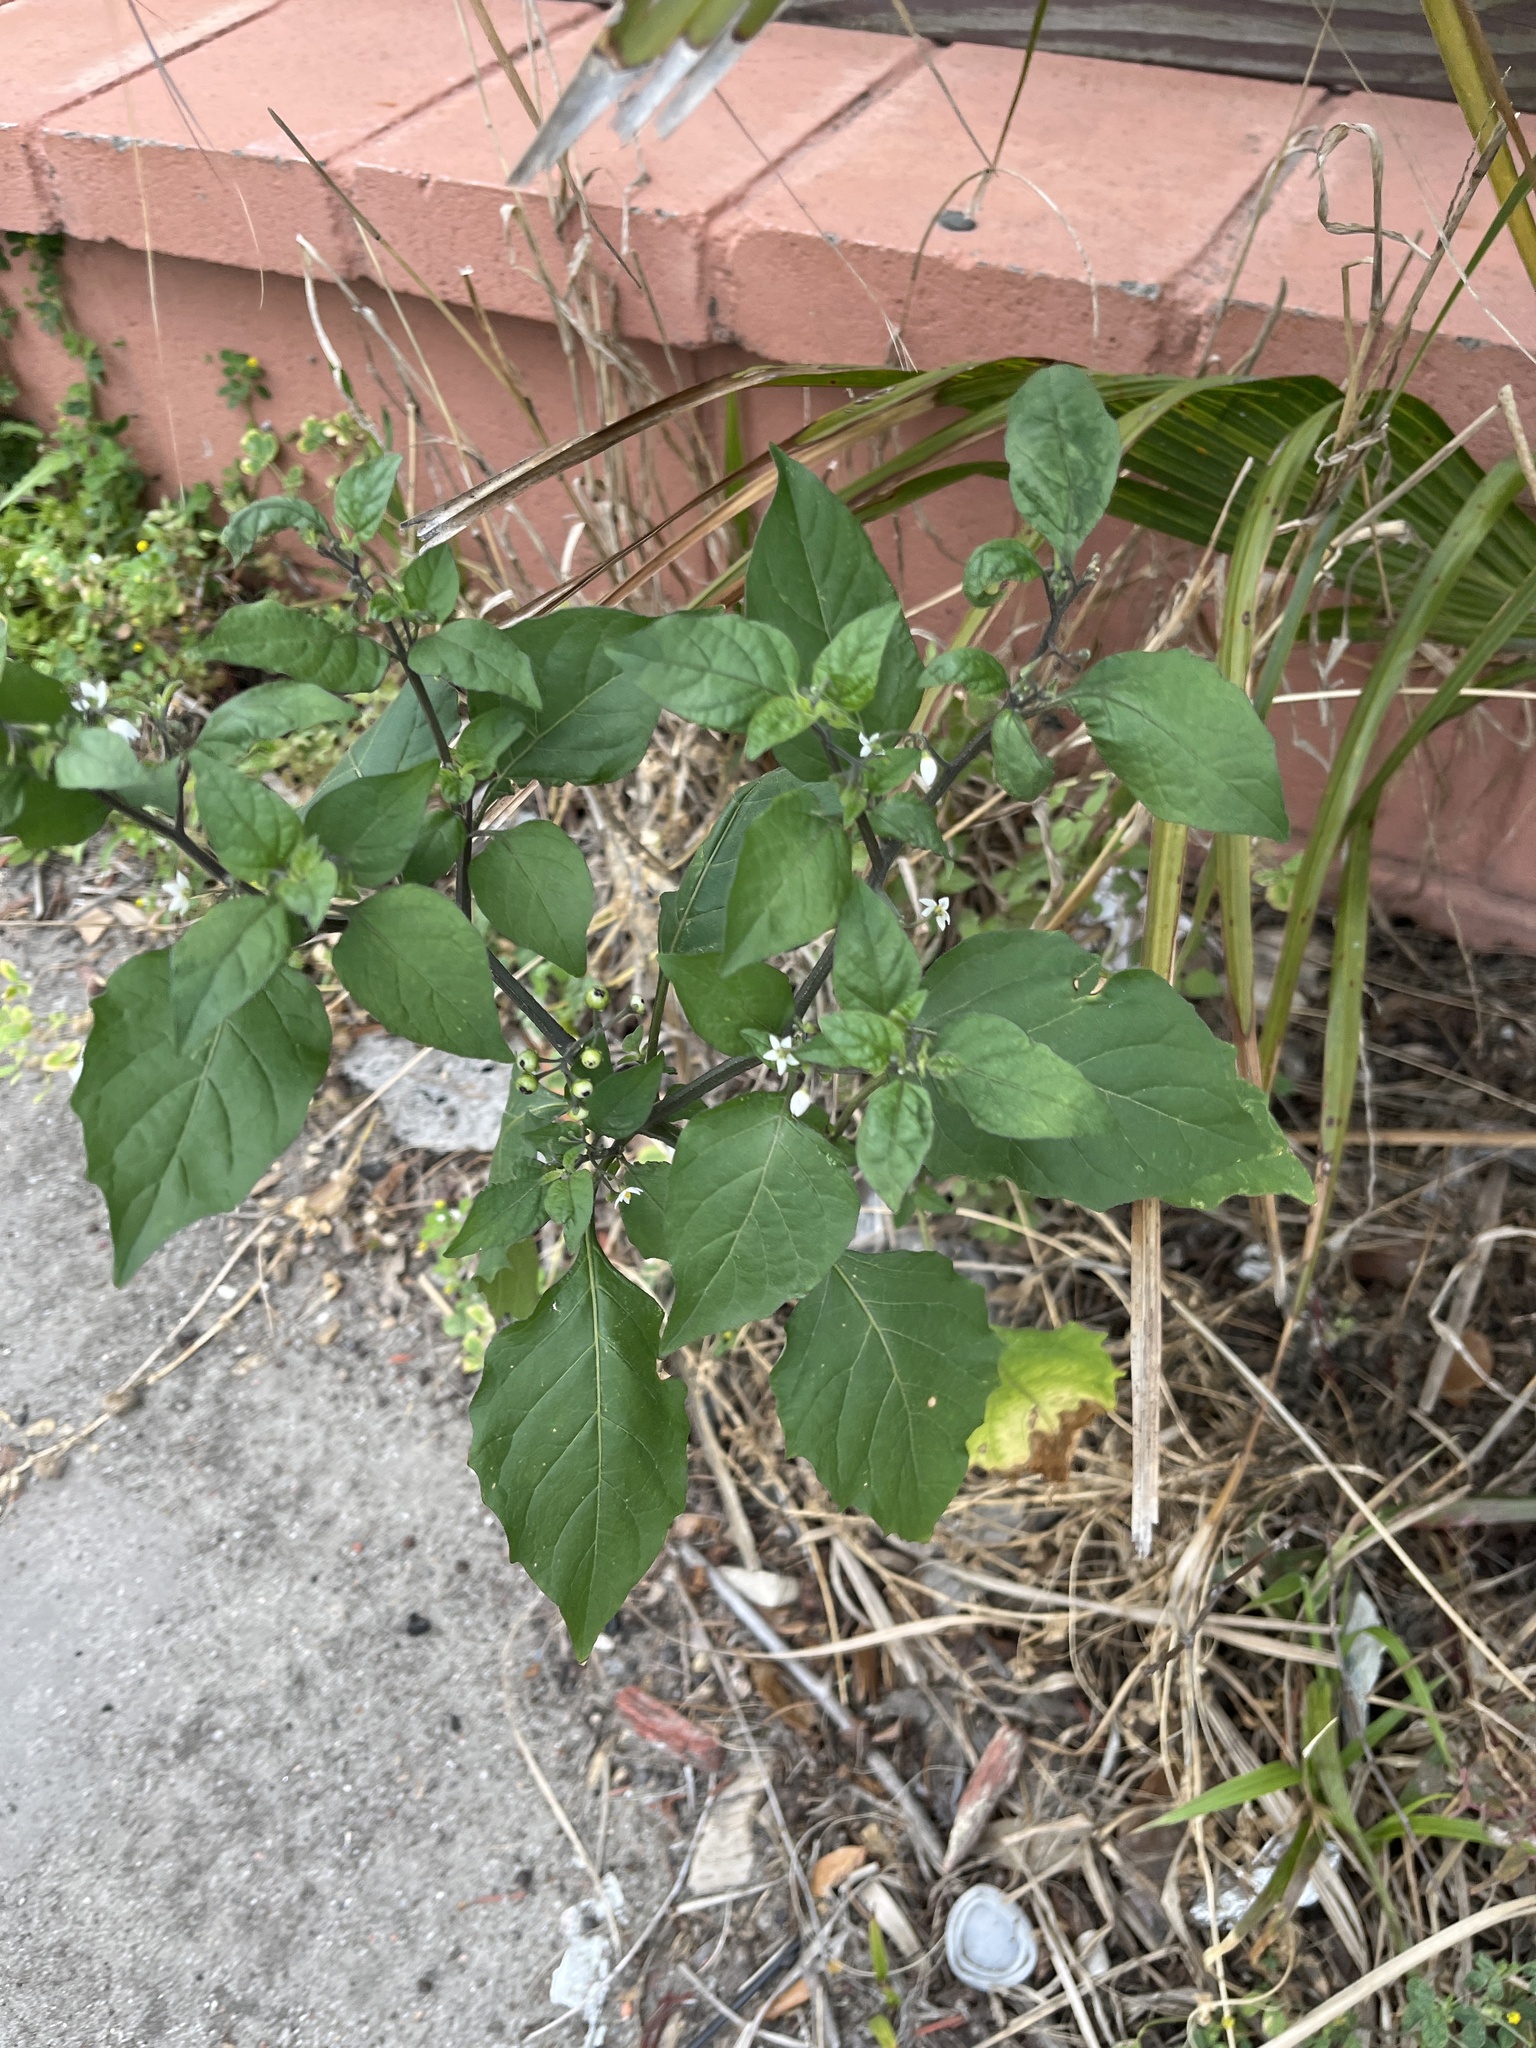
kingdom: Plantae
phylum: Tracheophyta
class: Magnoliopsida
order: Solanales
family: Solanaceae
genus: Solanum
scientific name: Solanum americanum
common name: American black nightshade
